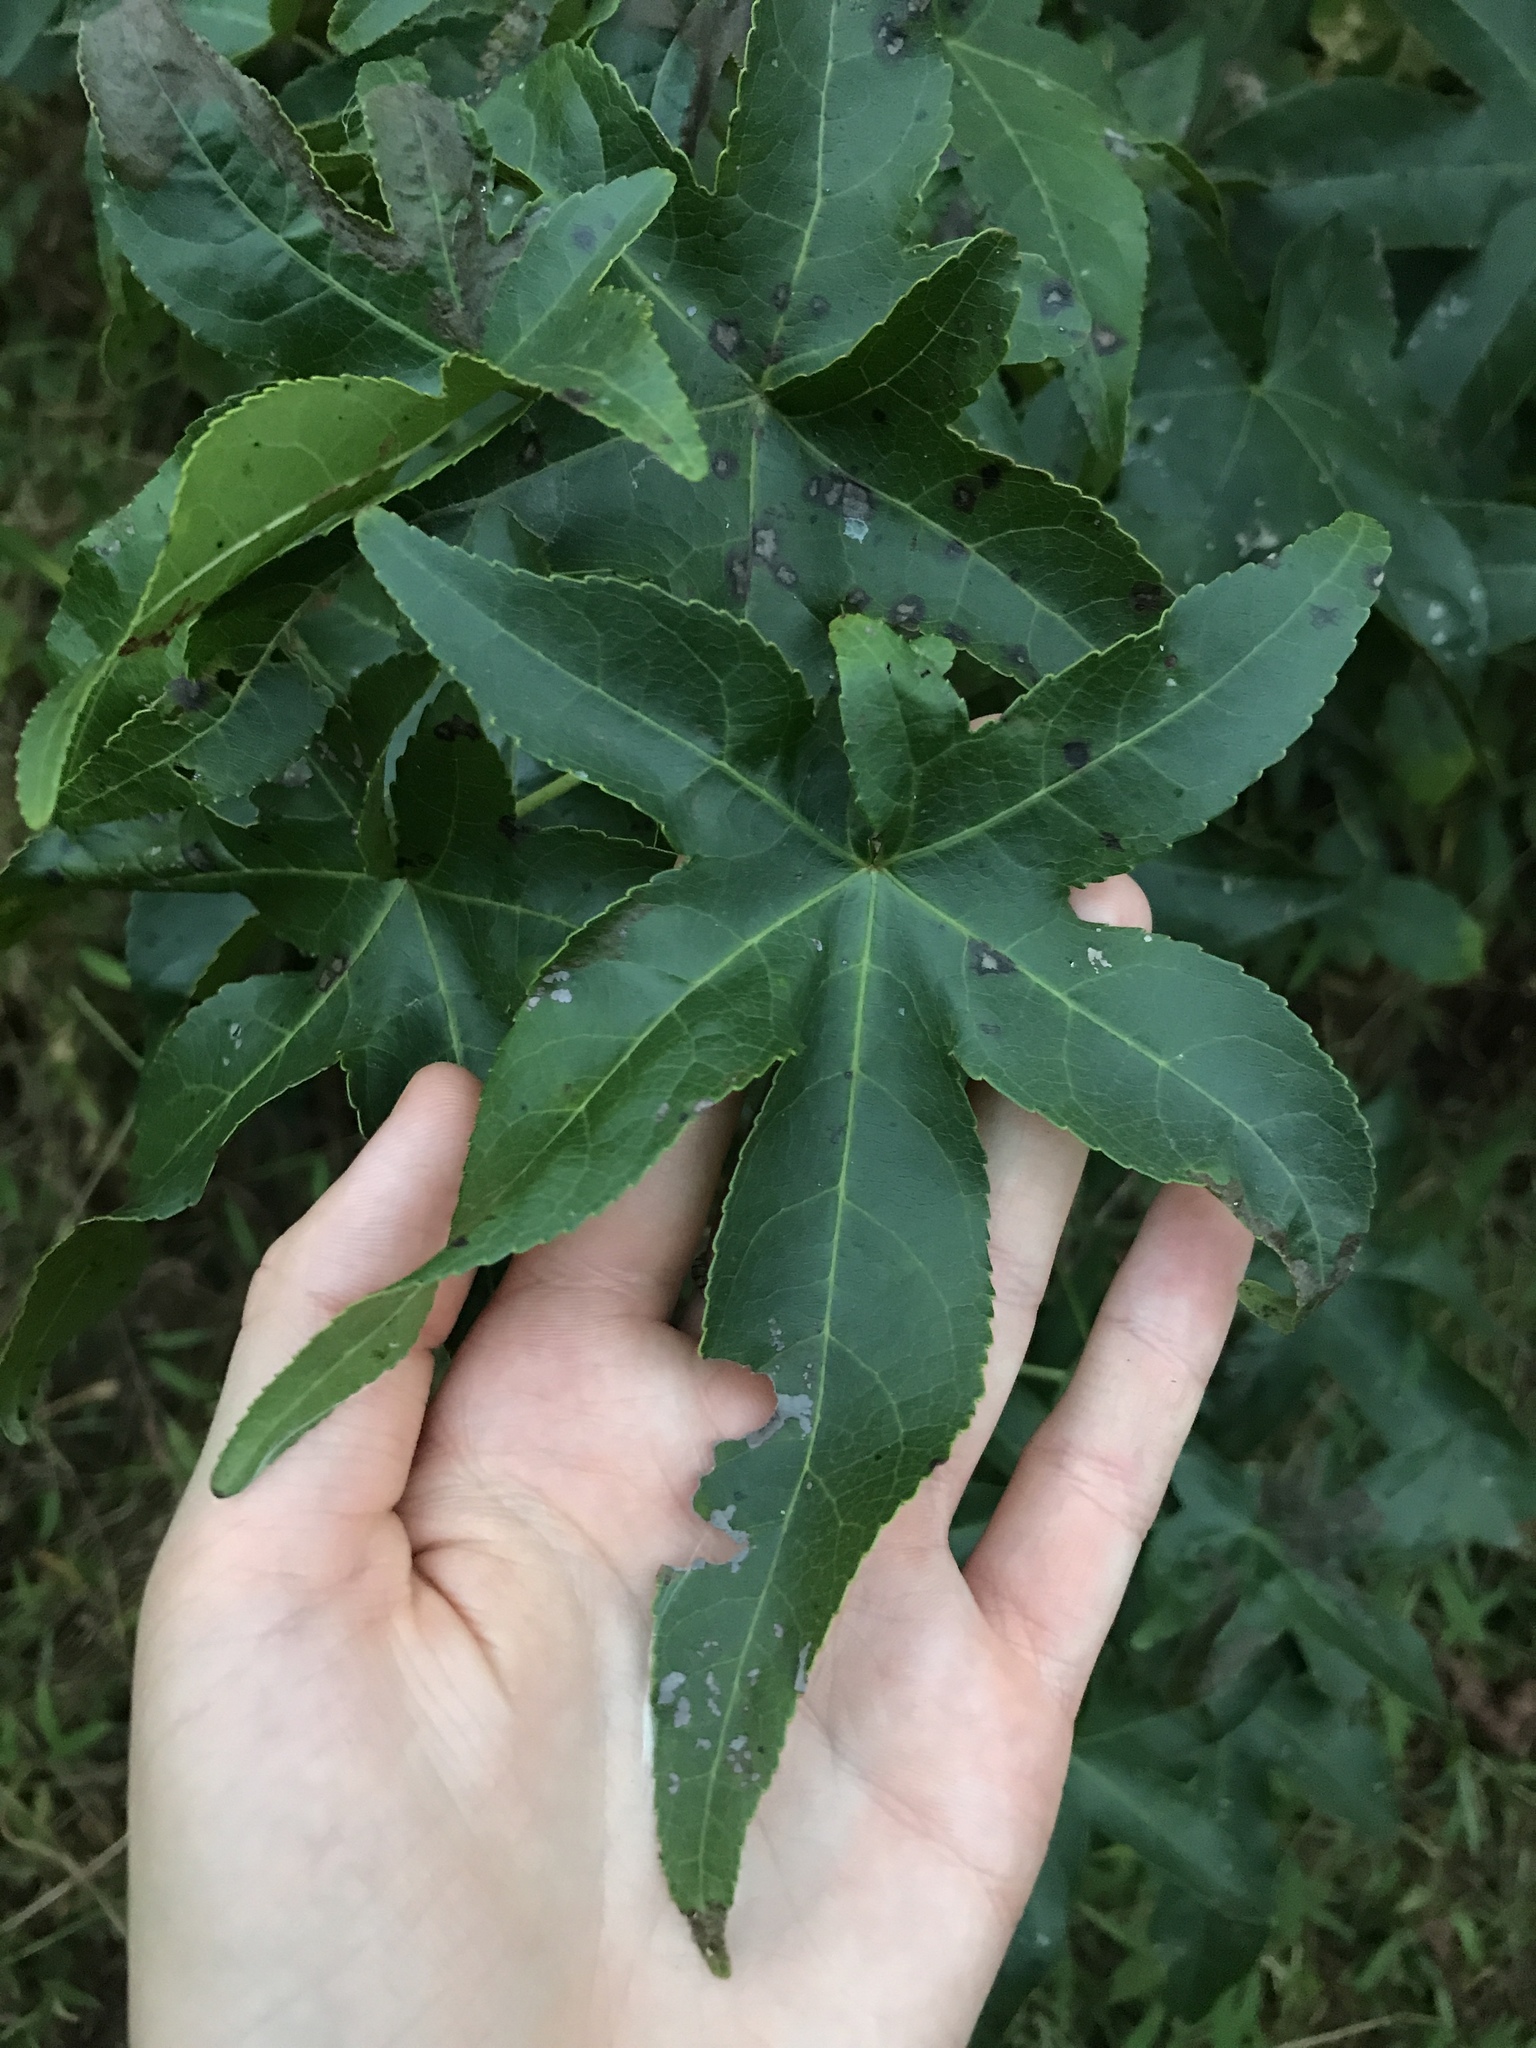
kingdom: Plantae
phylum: Tracheophyta
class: Magnoliopsida
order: Saxifragales
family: Altingiaceae
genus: Liquidambar
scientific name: Liquidambar styraciflua
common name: Sweet gum
